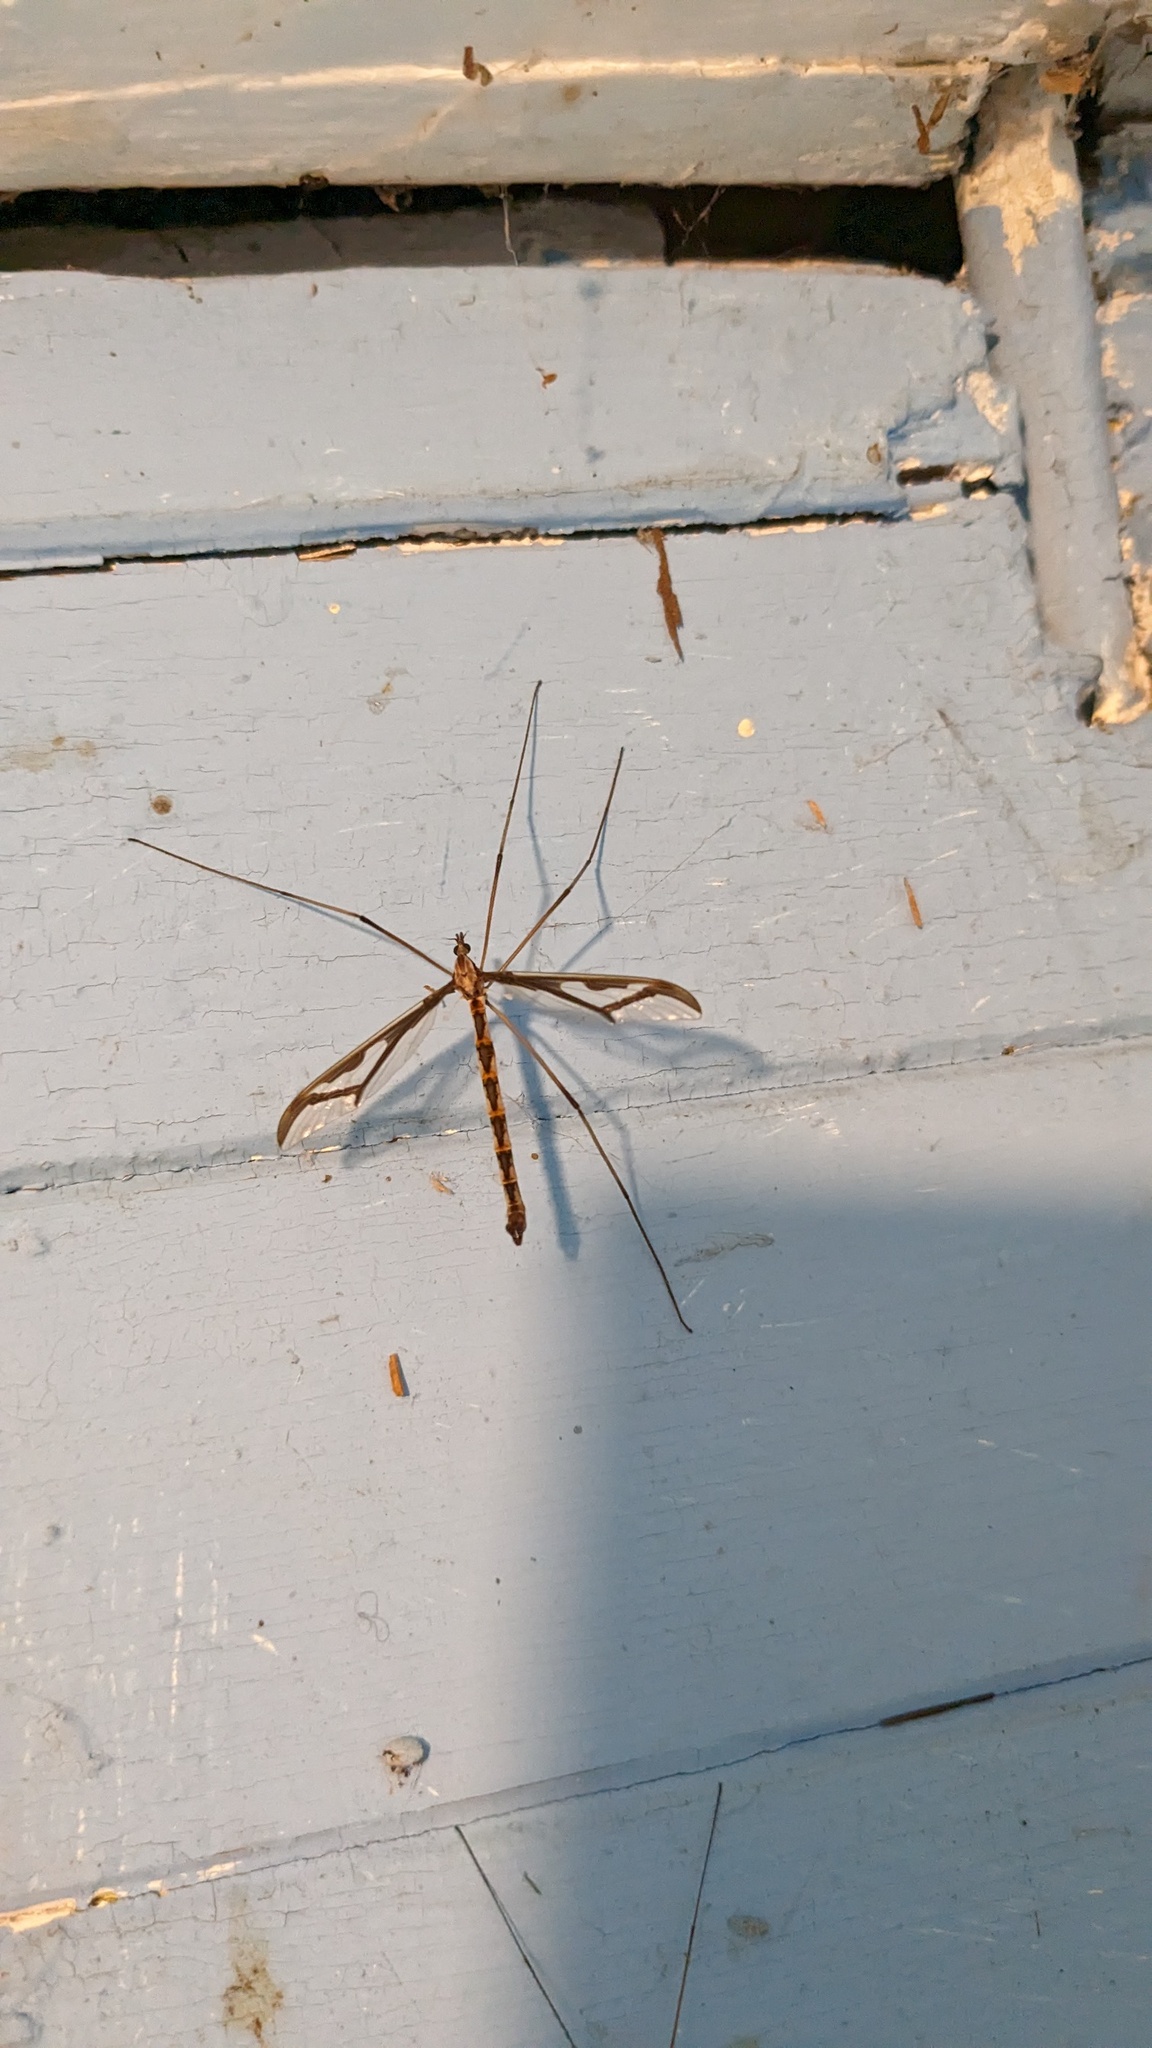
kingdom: Animalia
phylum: Arthropoda
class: Insecta
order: Diptera
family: Pediciidae
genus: Pedicia
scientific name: Pedicia albivitta
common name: Giant eastern crane fly
